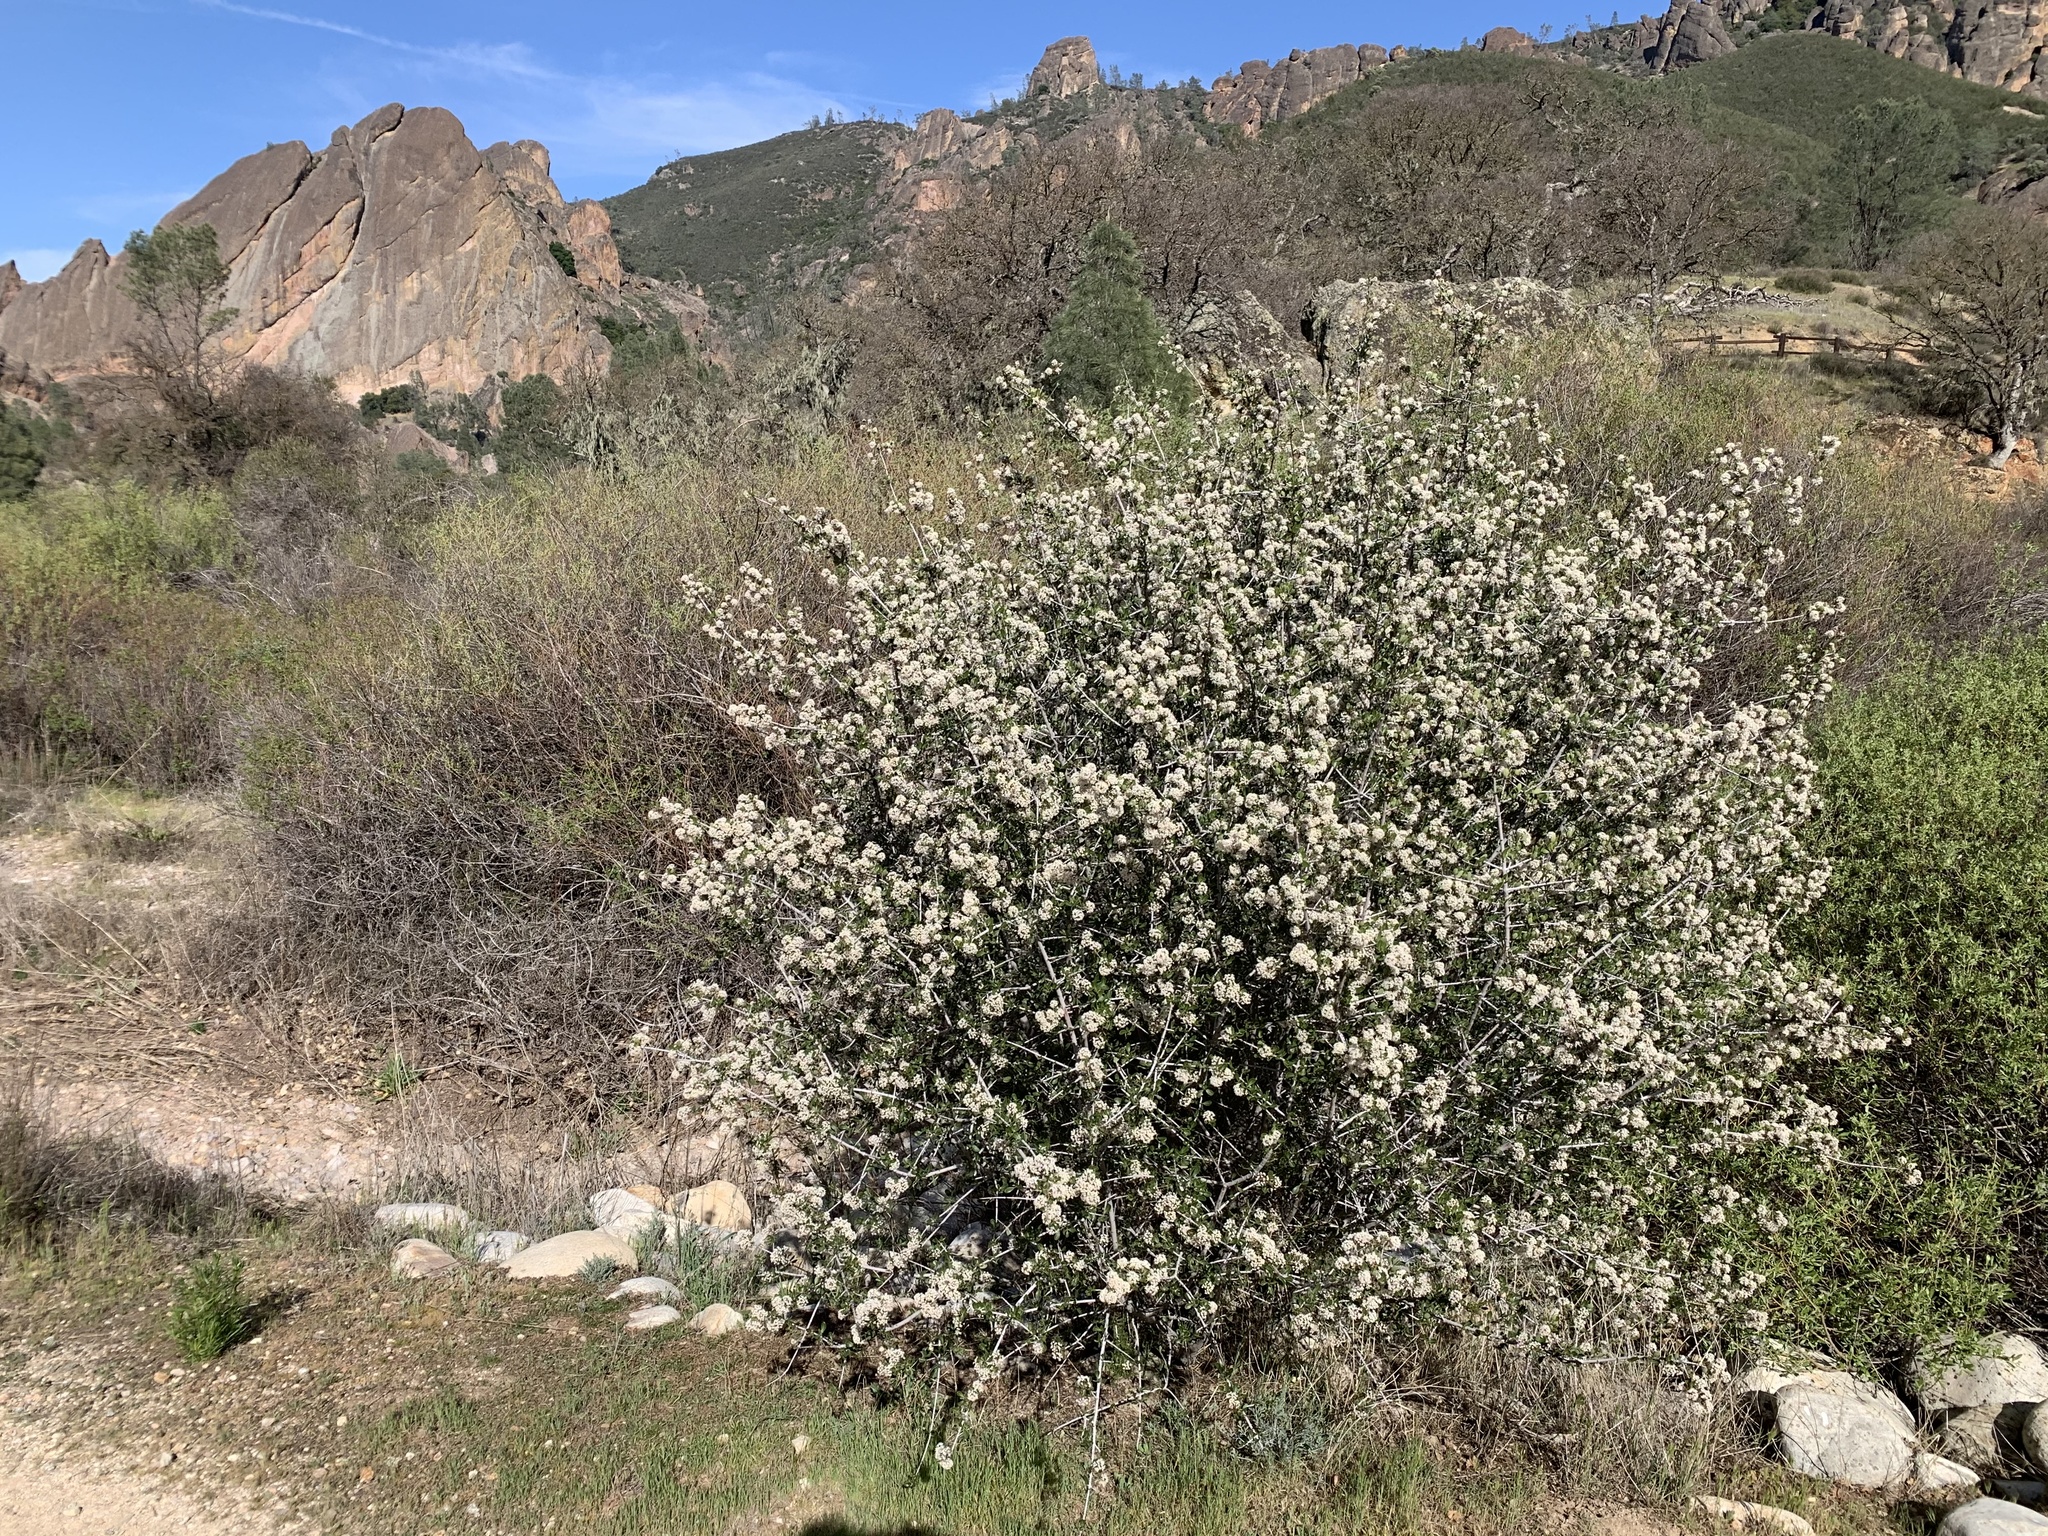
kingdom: Plantae
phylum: Tracheophyta
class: Magnoliopsida
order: Rosales
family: Rhamnaceae
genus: Ceanothus
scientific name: Ceanothus cuneatus
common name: Cuneate ceanothus
